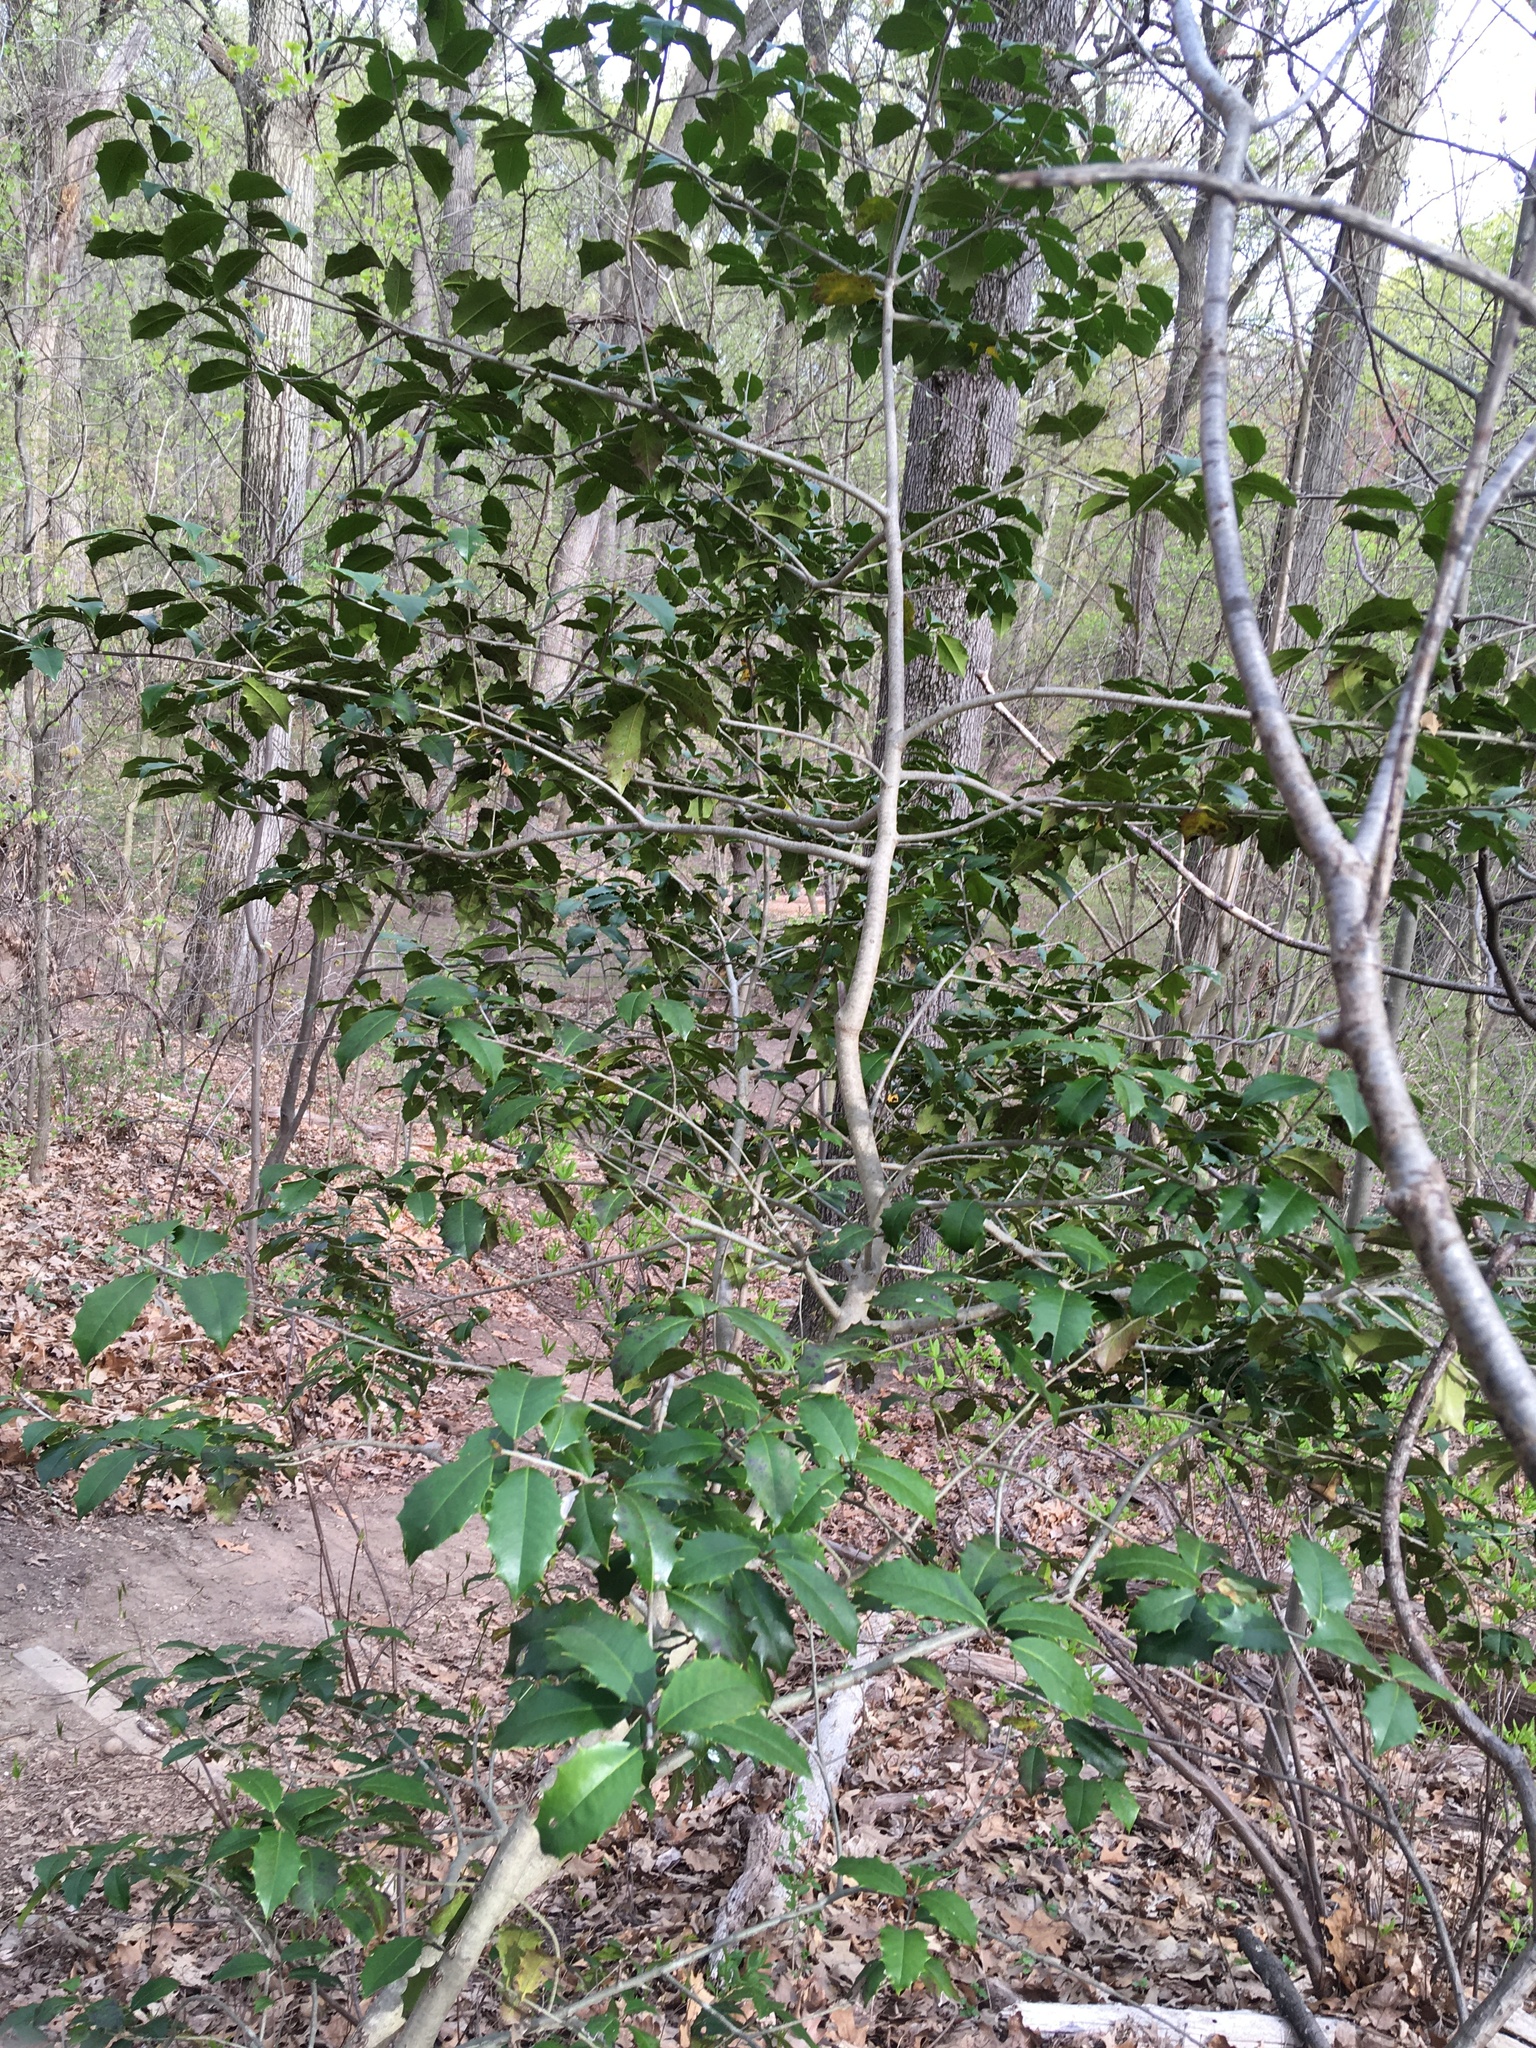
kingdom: Plantae
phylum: Tracheophyta
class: Magnoliopsida
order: Aquifoliales
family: Aquifoliaceae
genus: Ilex
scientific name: Ilex opaca
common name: American holly
